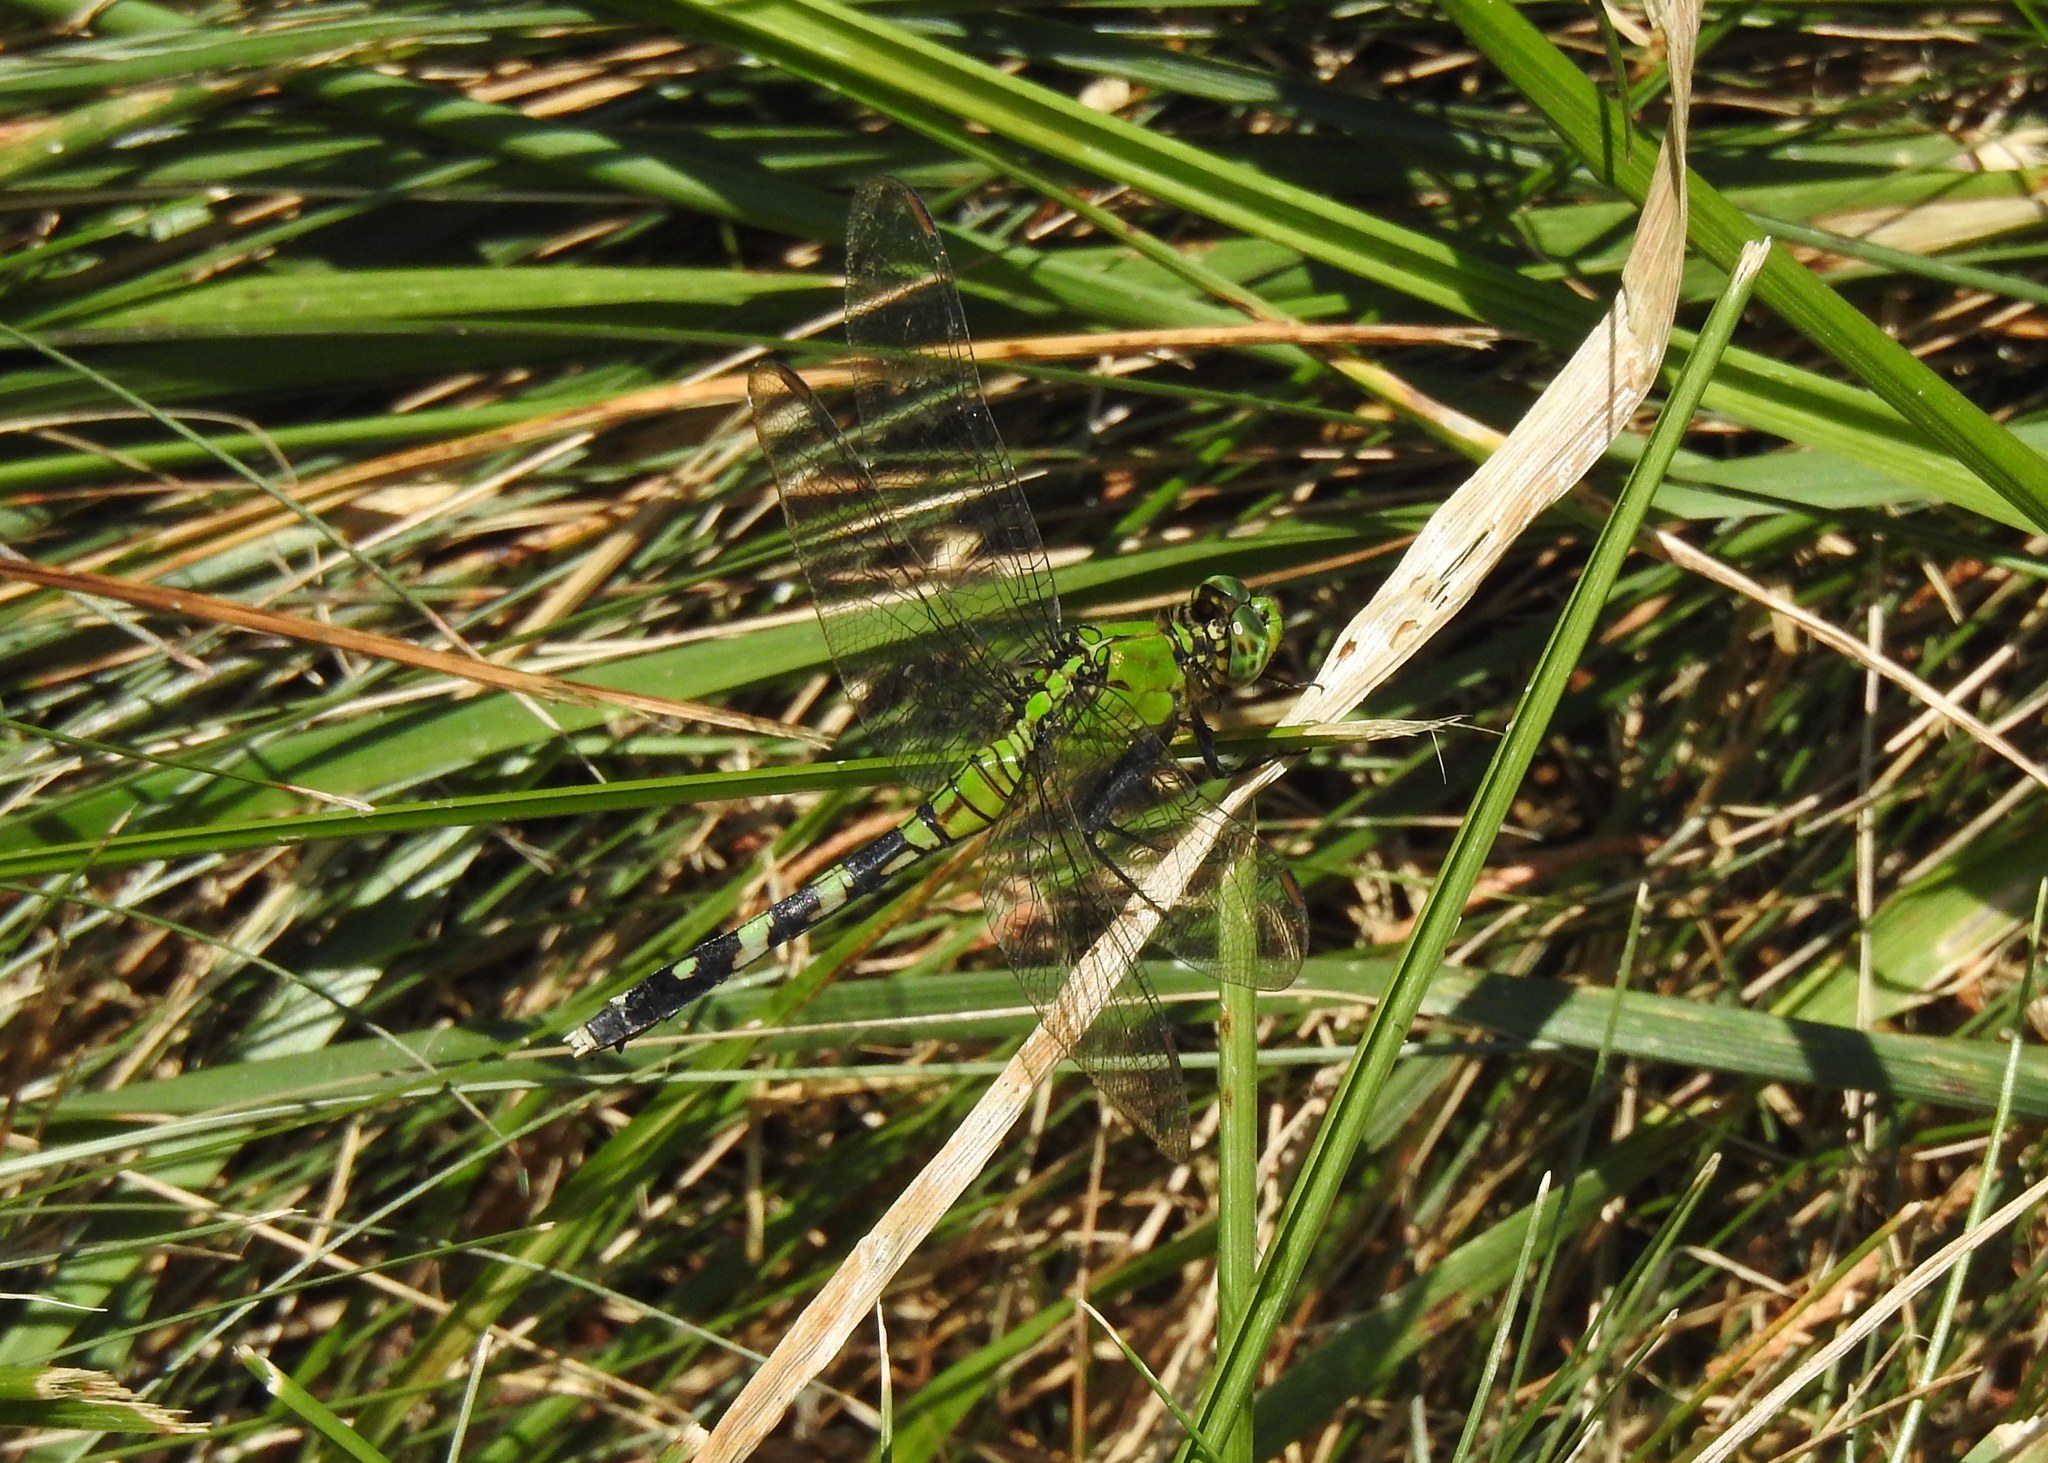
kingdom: Animalia
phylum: Arthropoda
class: Insecta
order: Odonata
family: Libellulidae
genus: Erythemis
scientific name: Erythemis simplicicollis
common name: Eastern pondhawk
